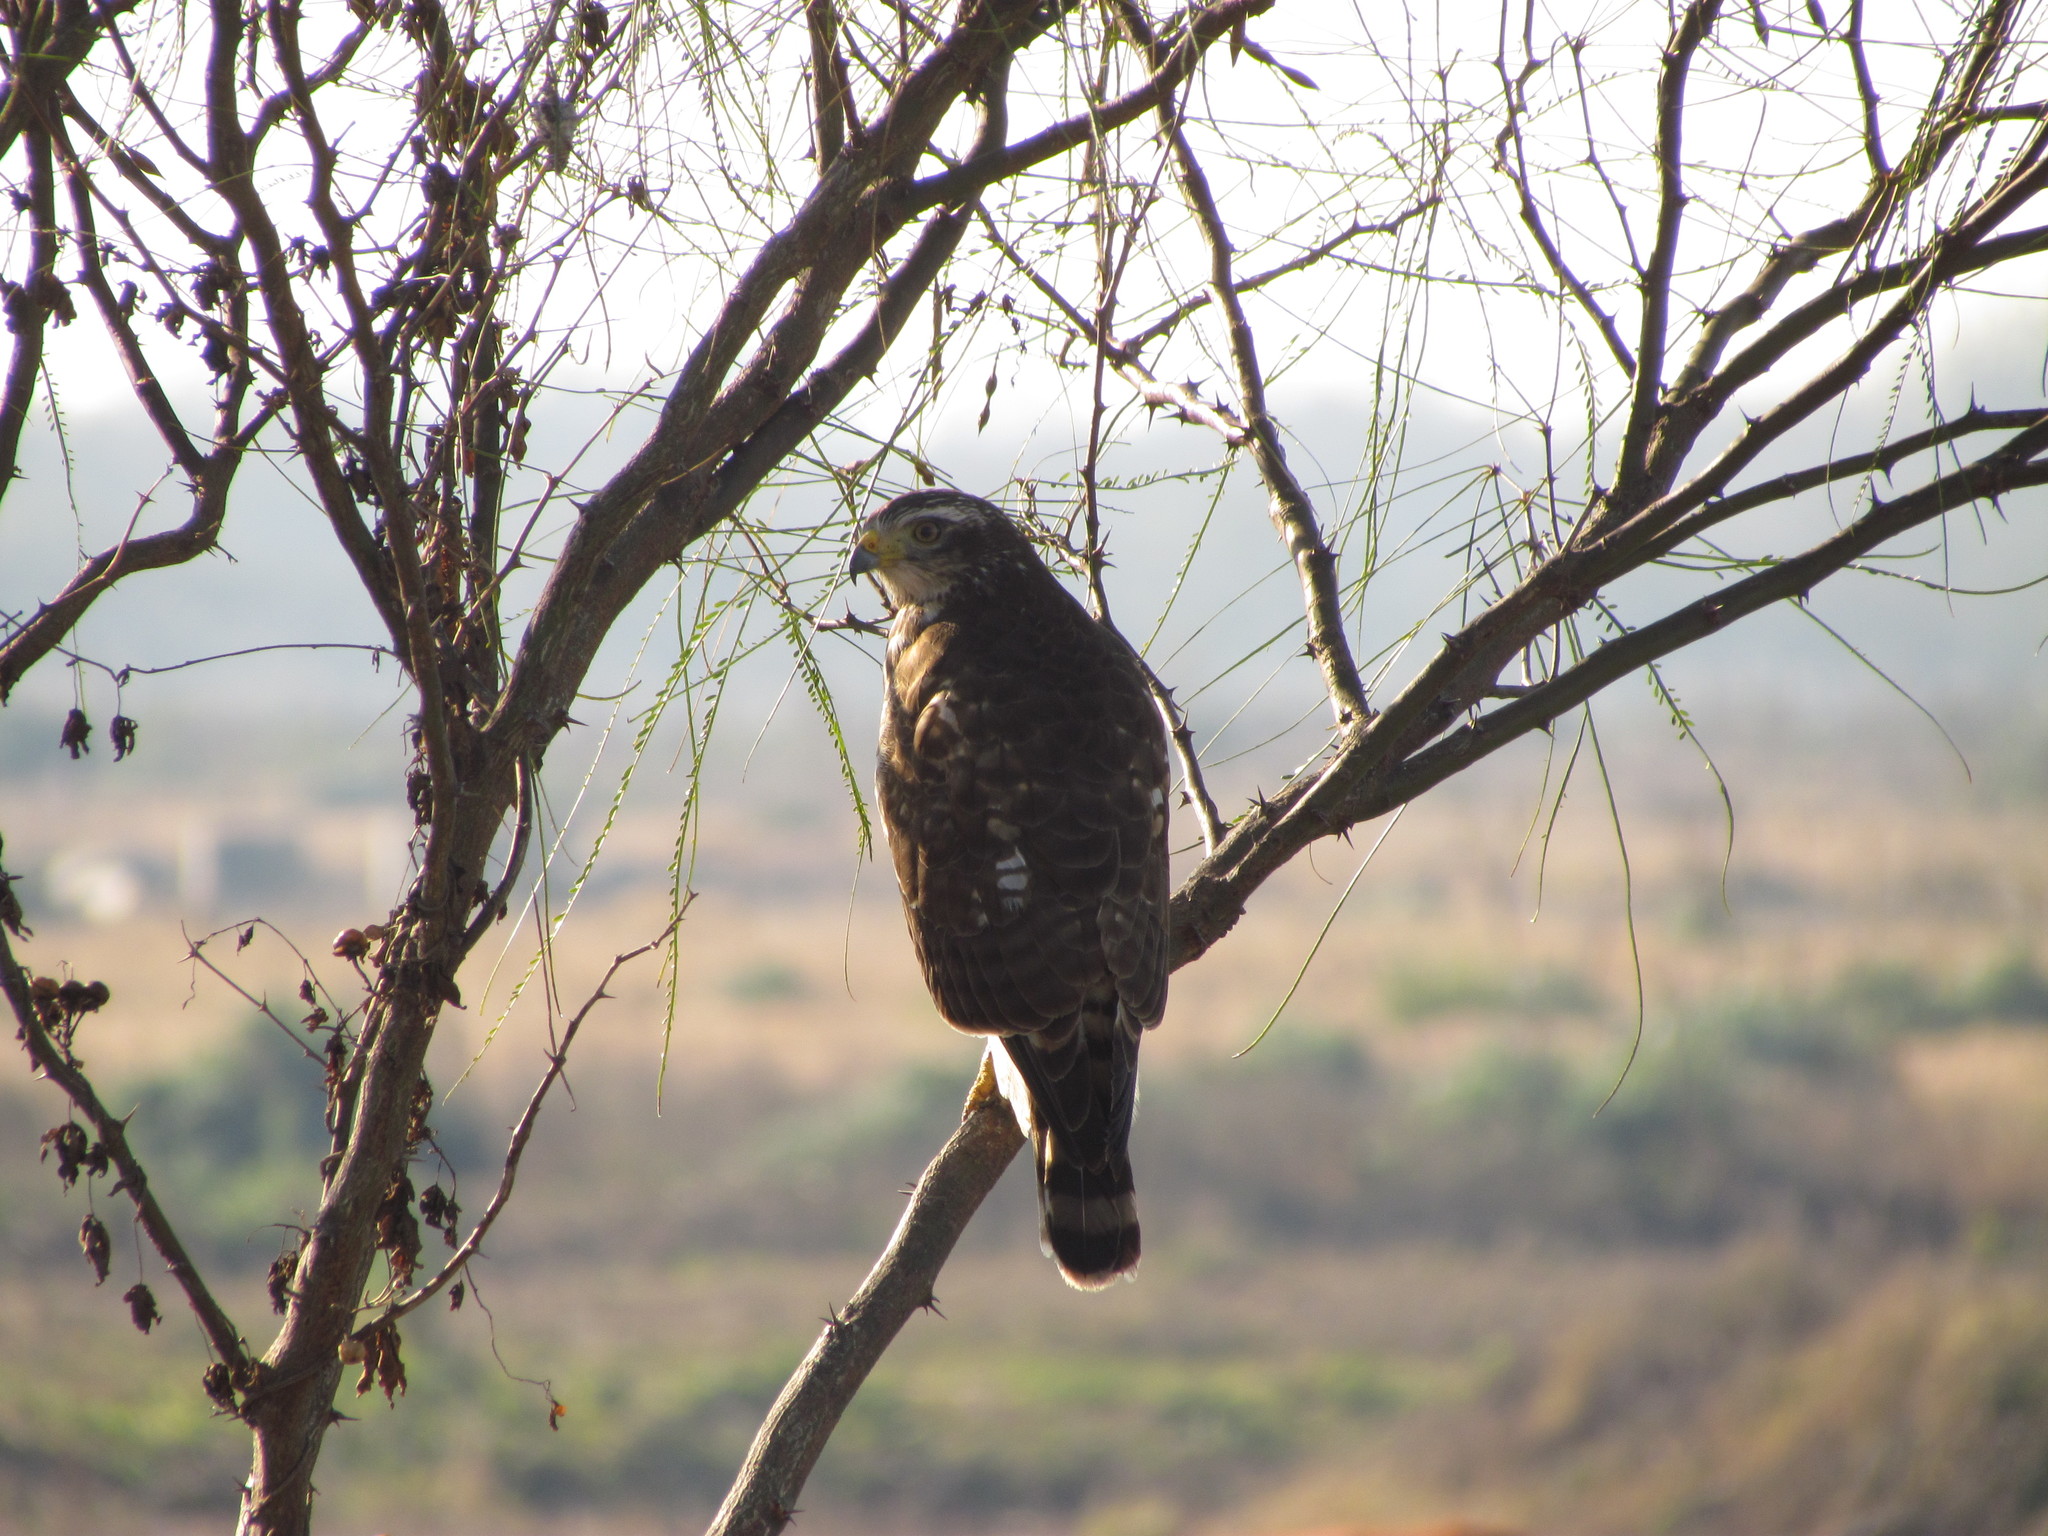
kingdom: Animalia
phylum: Chordata
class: Aves
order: Accipitriformes
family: Accipitridae
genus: Rupornis
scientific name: Rupornis magnirostris
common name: Roadside hawk
